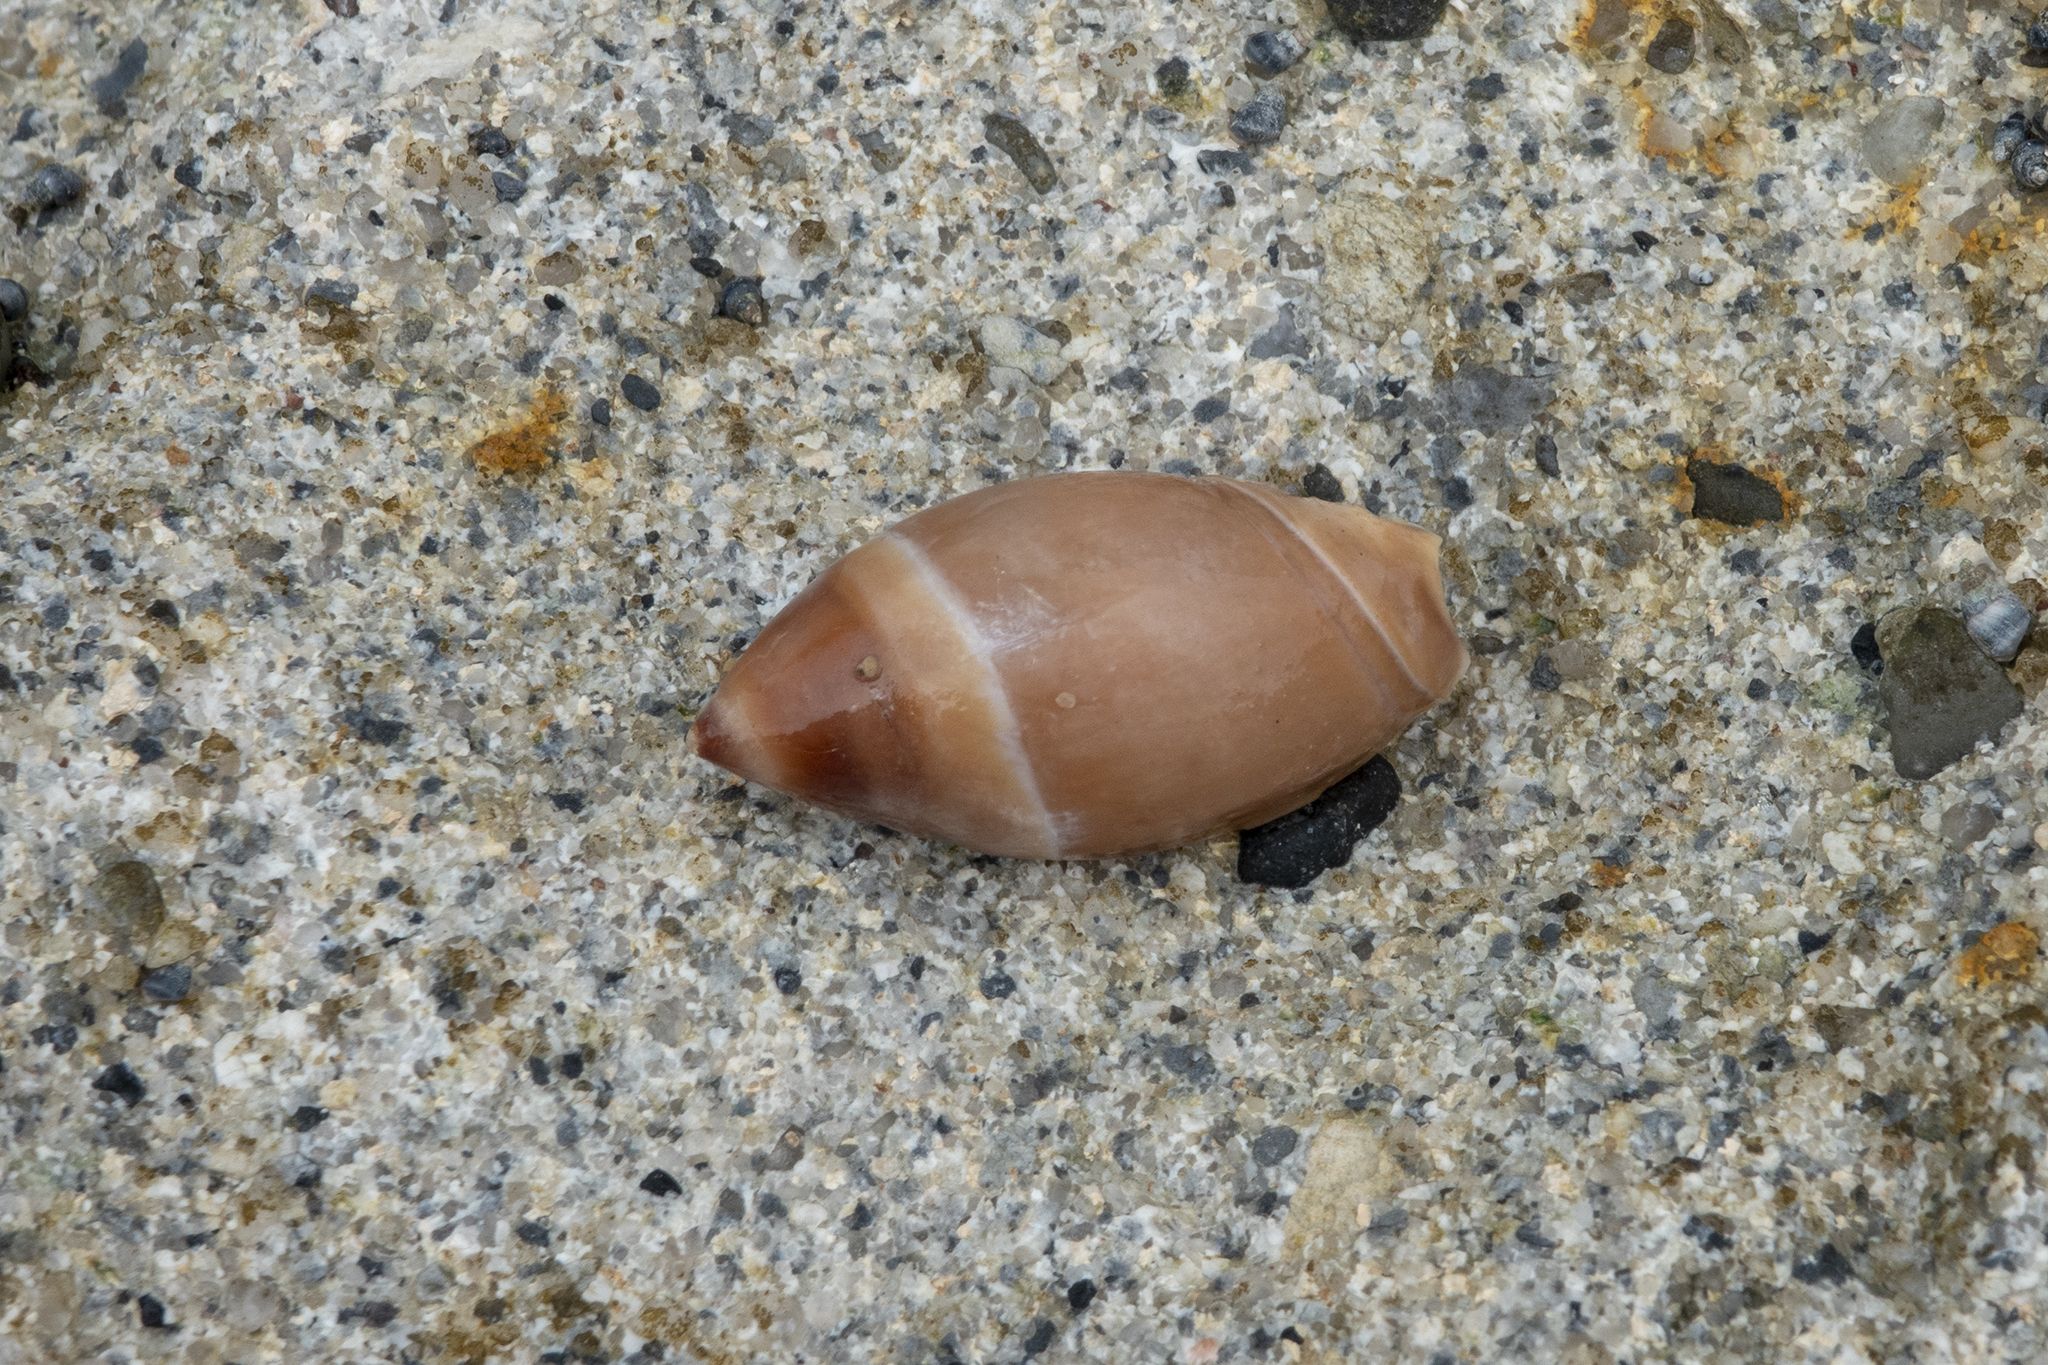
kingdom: Animalia
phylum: Mollusca
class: Gastropoda
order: Neogastropoda
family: Ancillariidae
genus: Amalda
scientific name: Amalda mucronata
